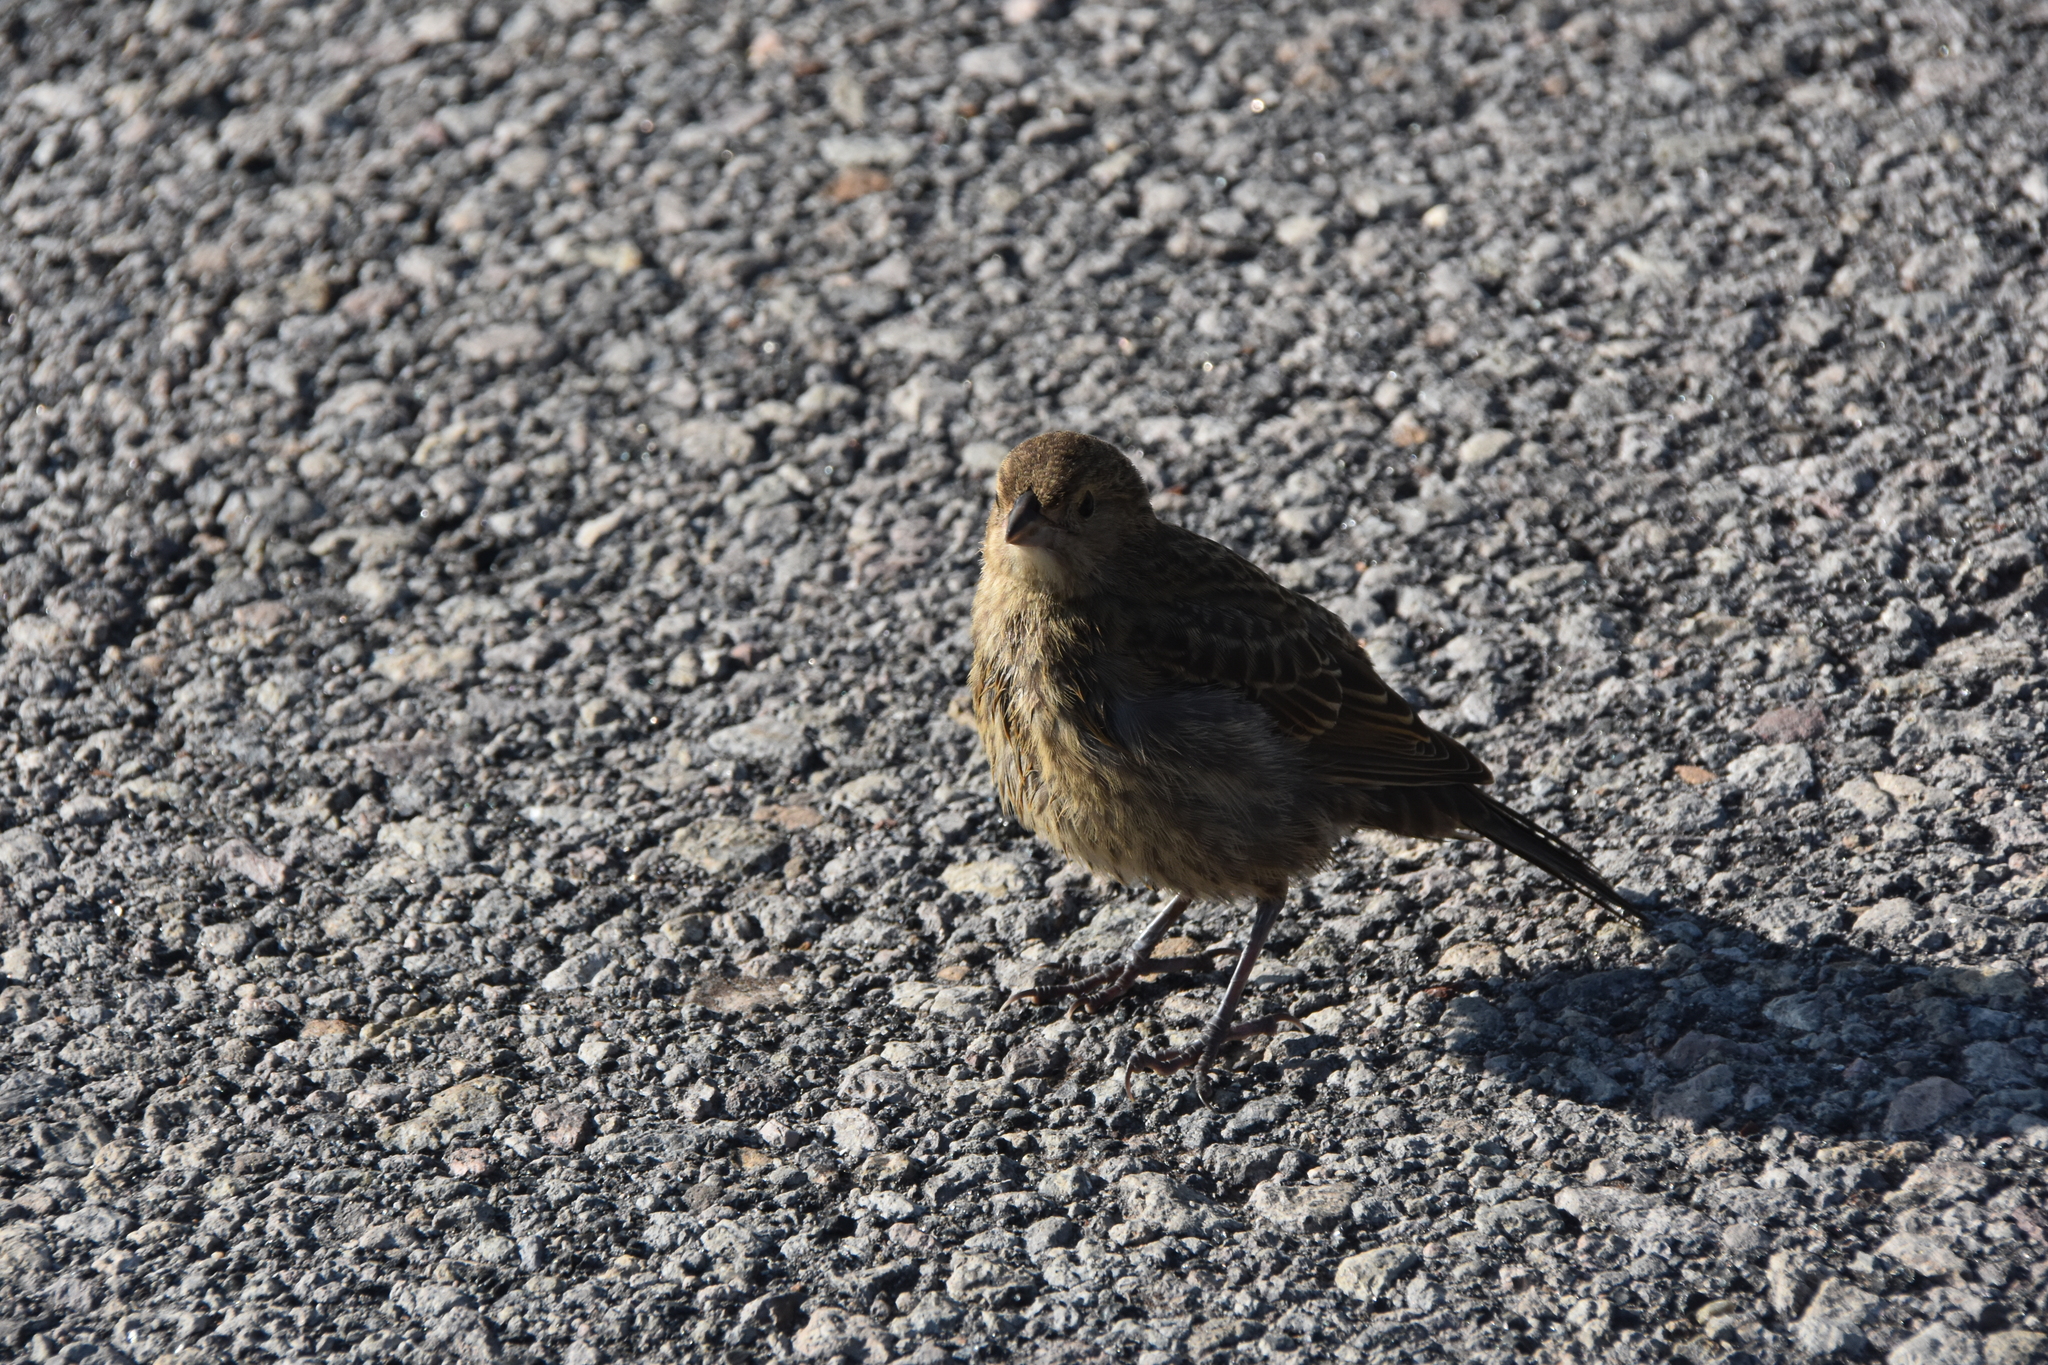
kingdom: Animalia
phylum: Chordata
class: Aves
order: Passeriformes
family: Icteridae
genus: Molothrus
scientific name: Molothrus ater
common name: Brown-headed cowbird
